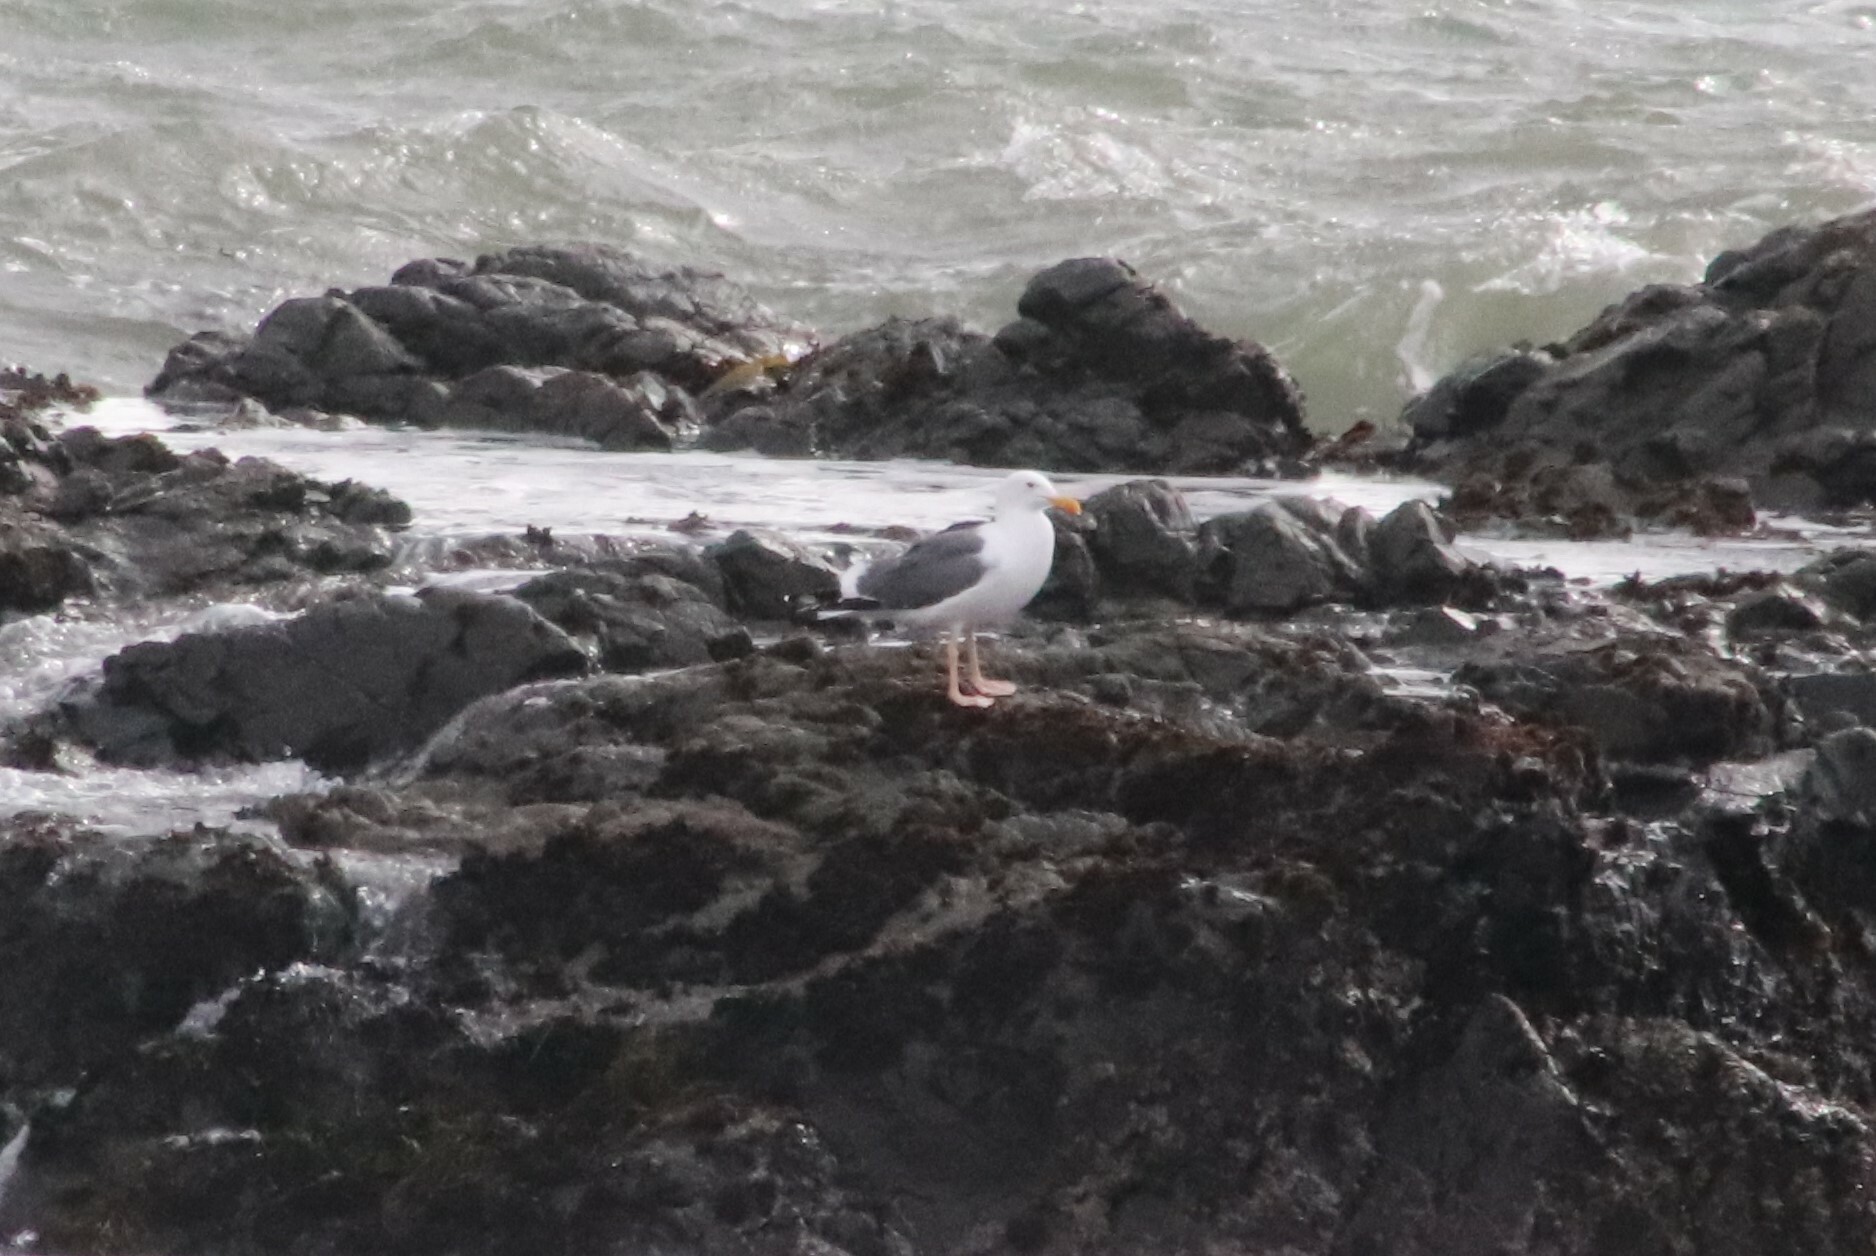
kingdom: Animalia
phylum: Chordata
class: Aves
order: Charadriiformes
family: Laridae
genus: Larus
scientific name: Larus occidentalis
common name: Western gull
